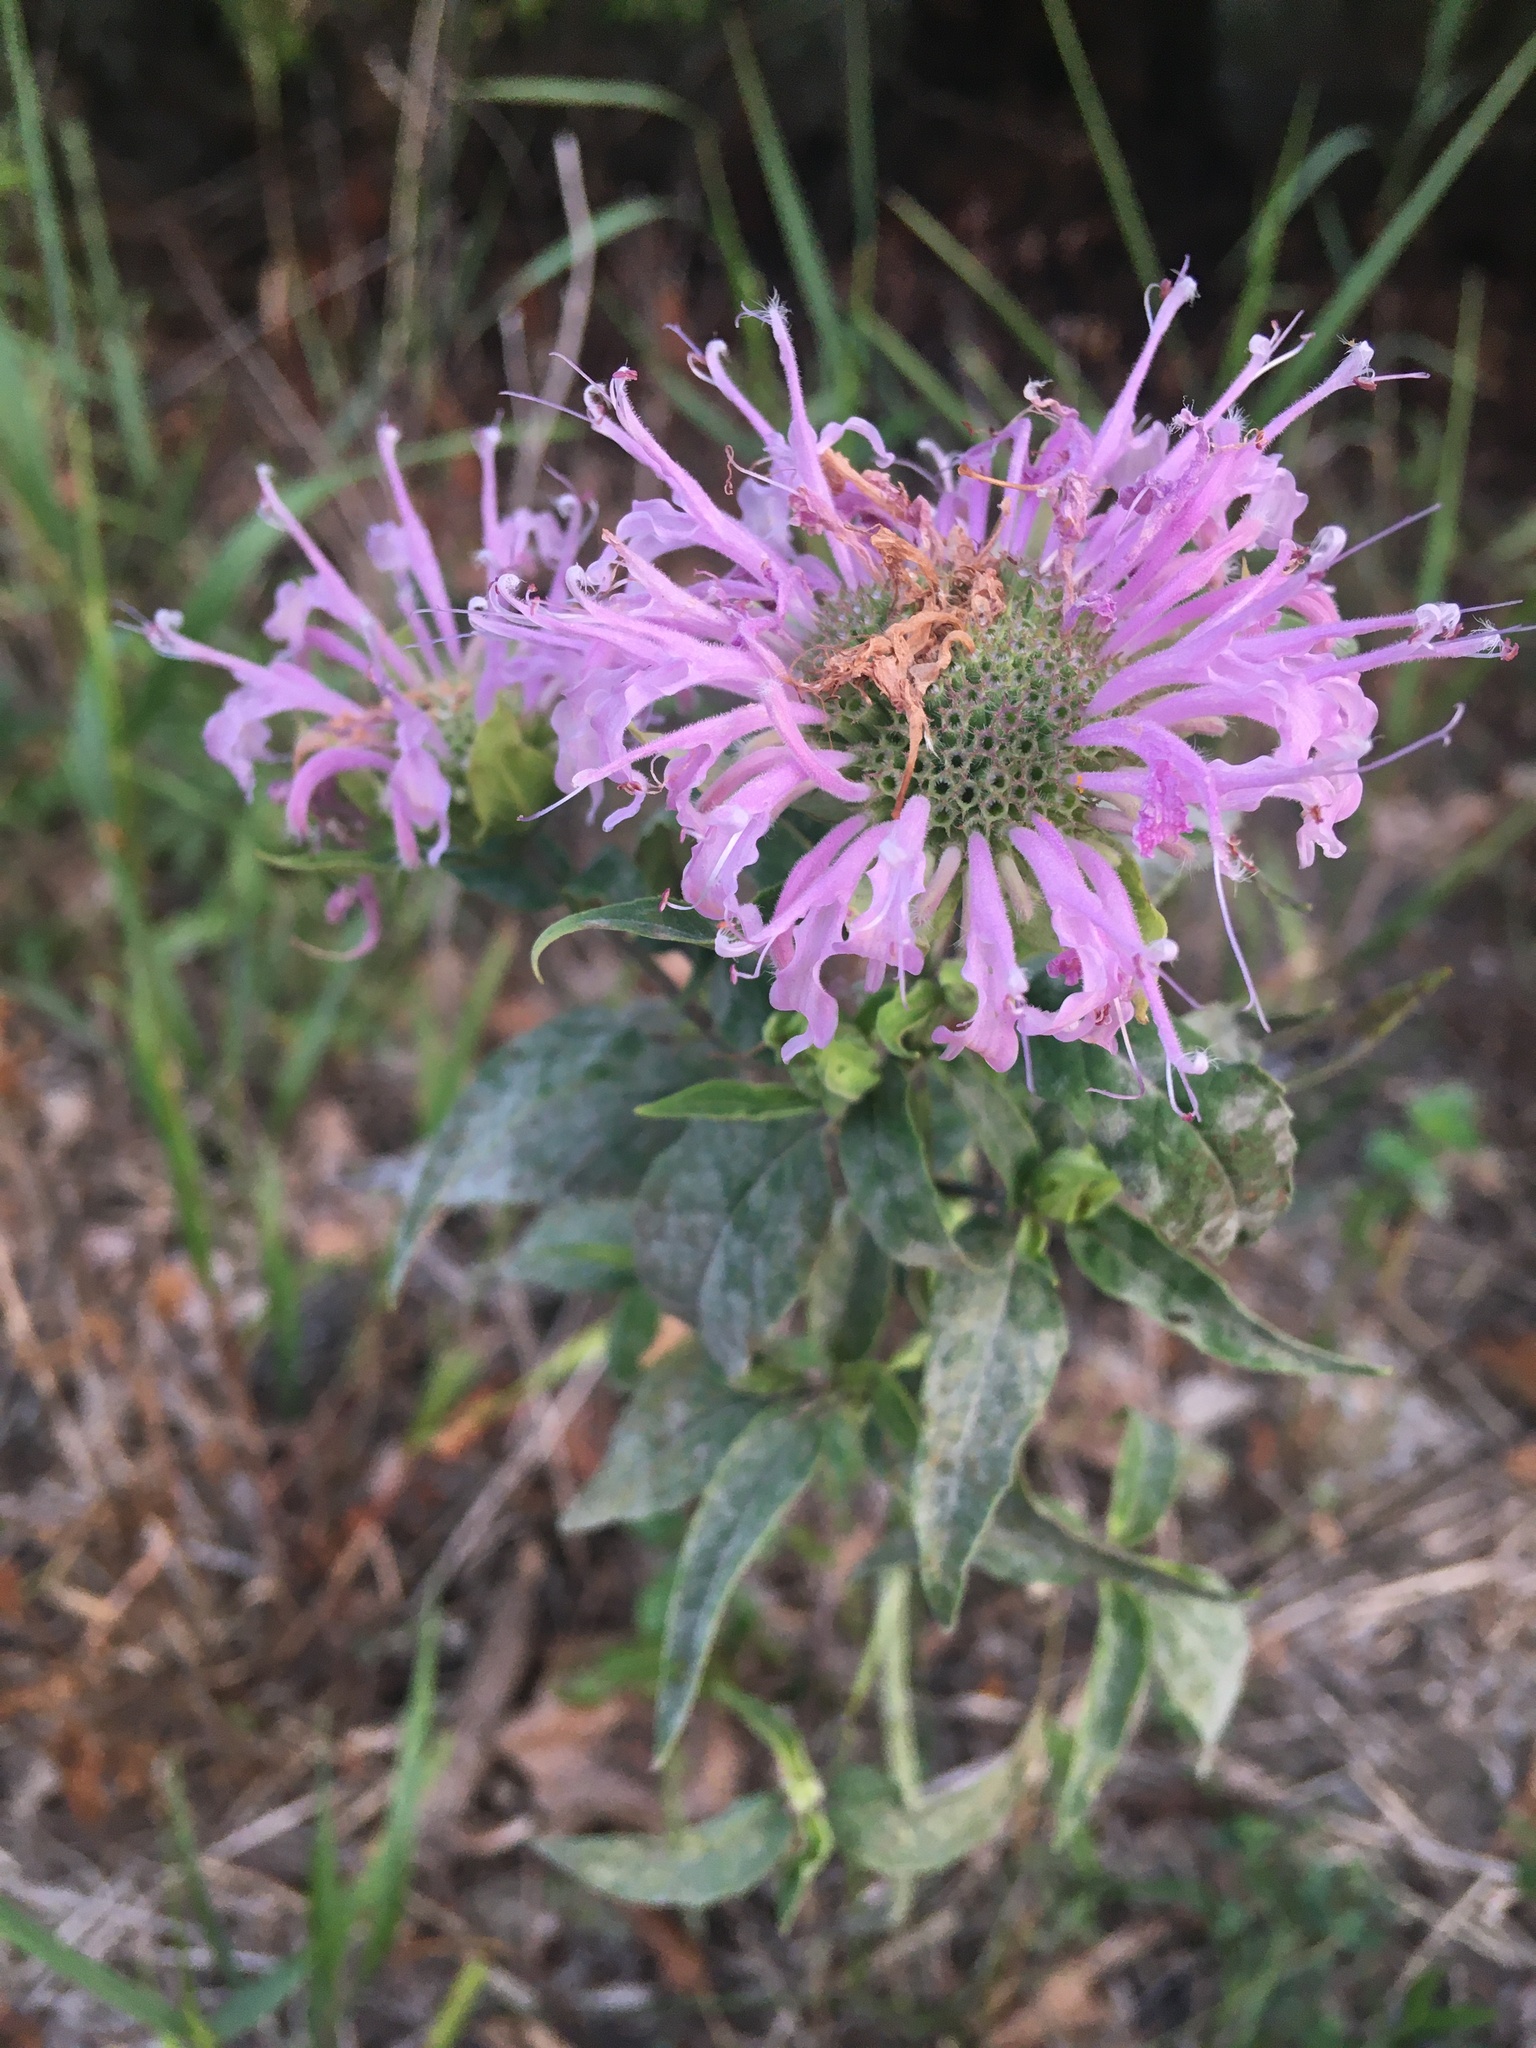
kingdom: Plantae
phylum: Tracheophyta
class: Magnoliopsida
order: Lamiales
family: Lamiaceae
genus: Monarda
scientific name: Monarda fistulosa
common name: Purple beebalm
